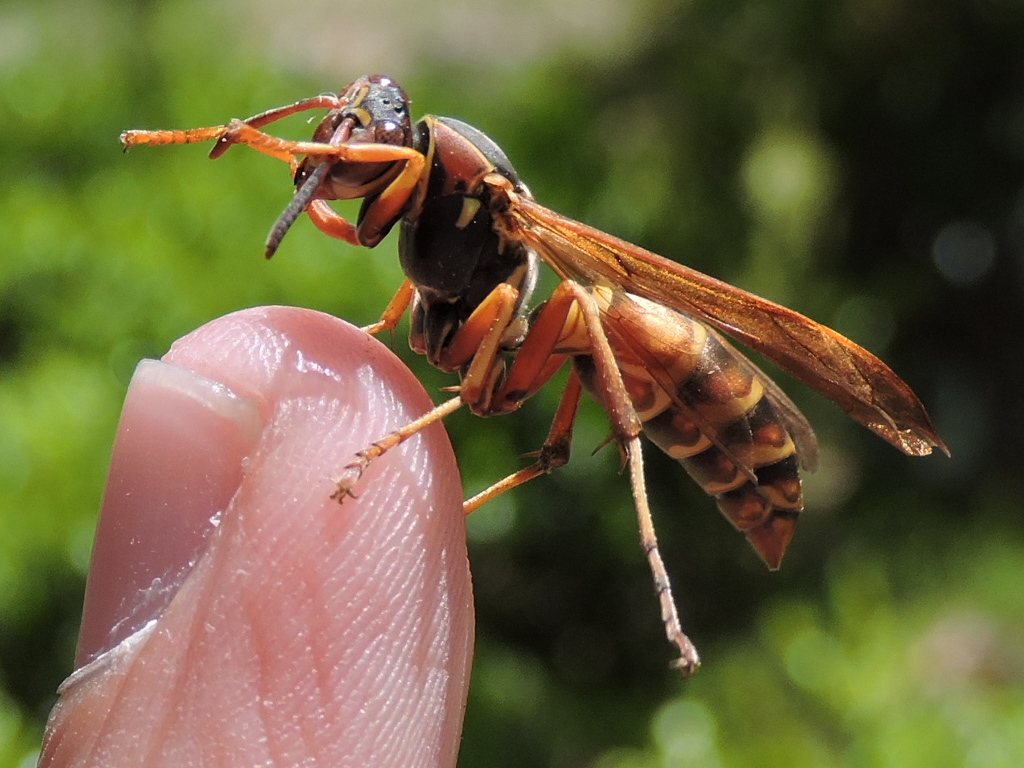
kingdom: Animalia
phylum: Arthropoda
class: Insecta
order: Hymenoptera
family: Eumenidae
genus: Polistes
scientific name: Polistes fuscatus
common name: Dark paper wasp
